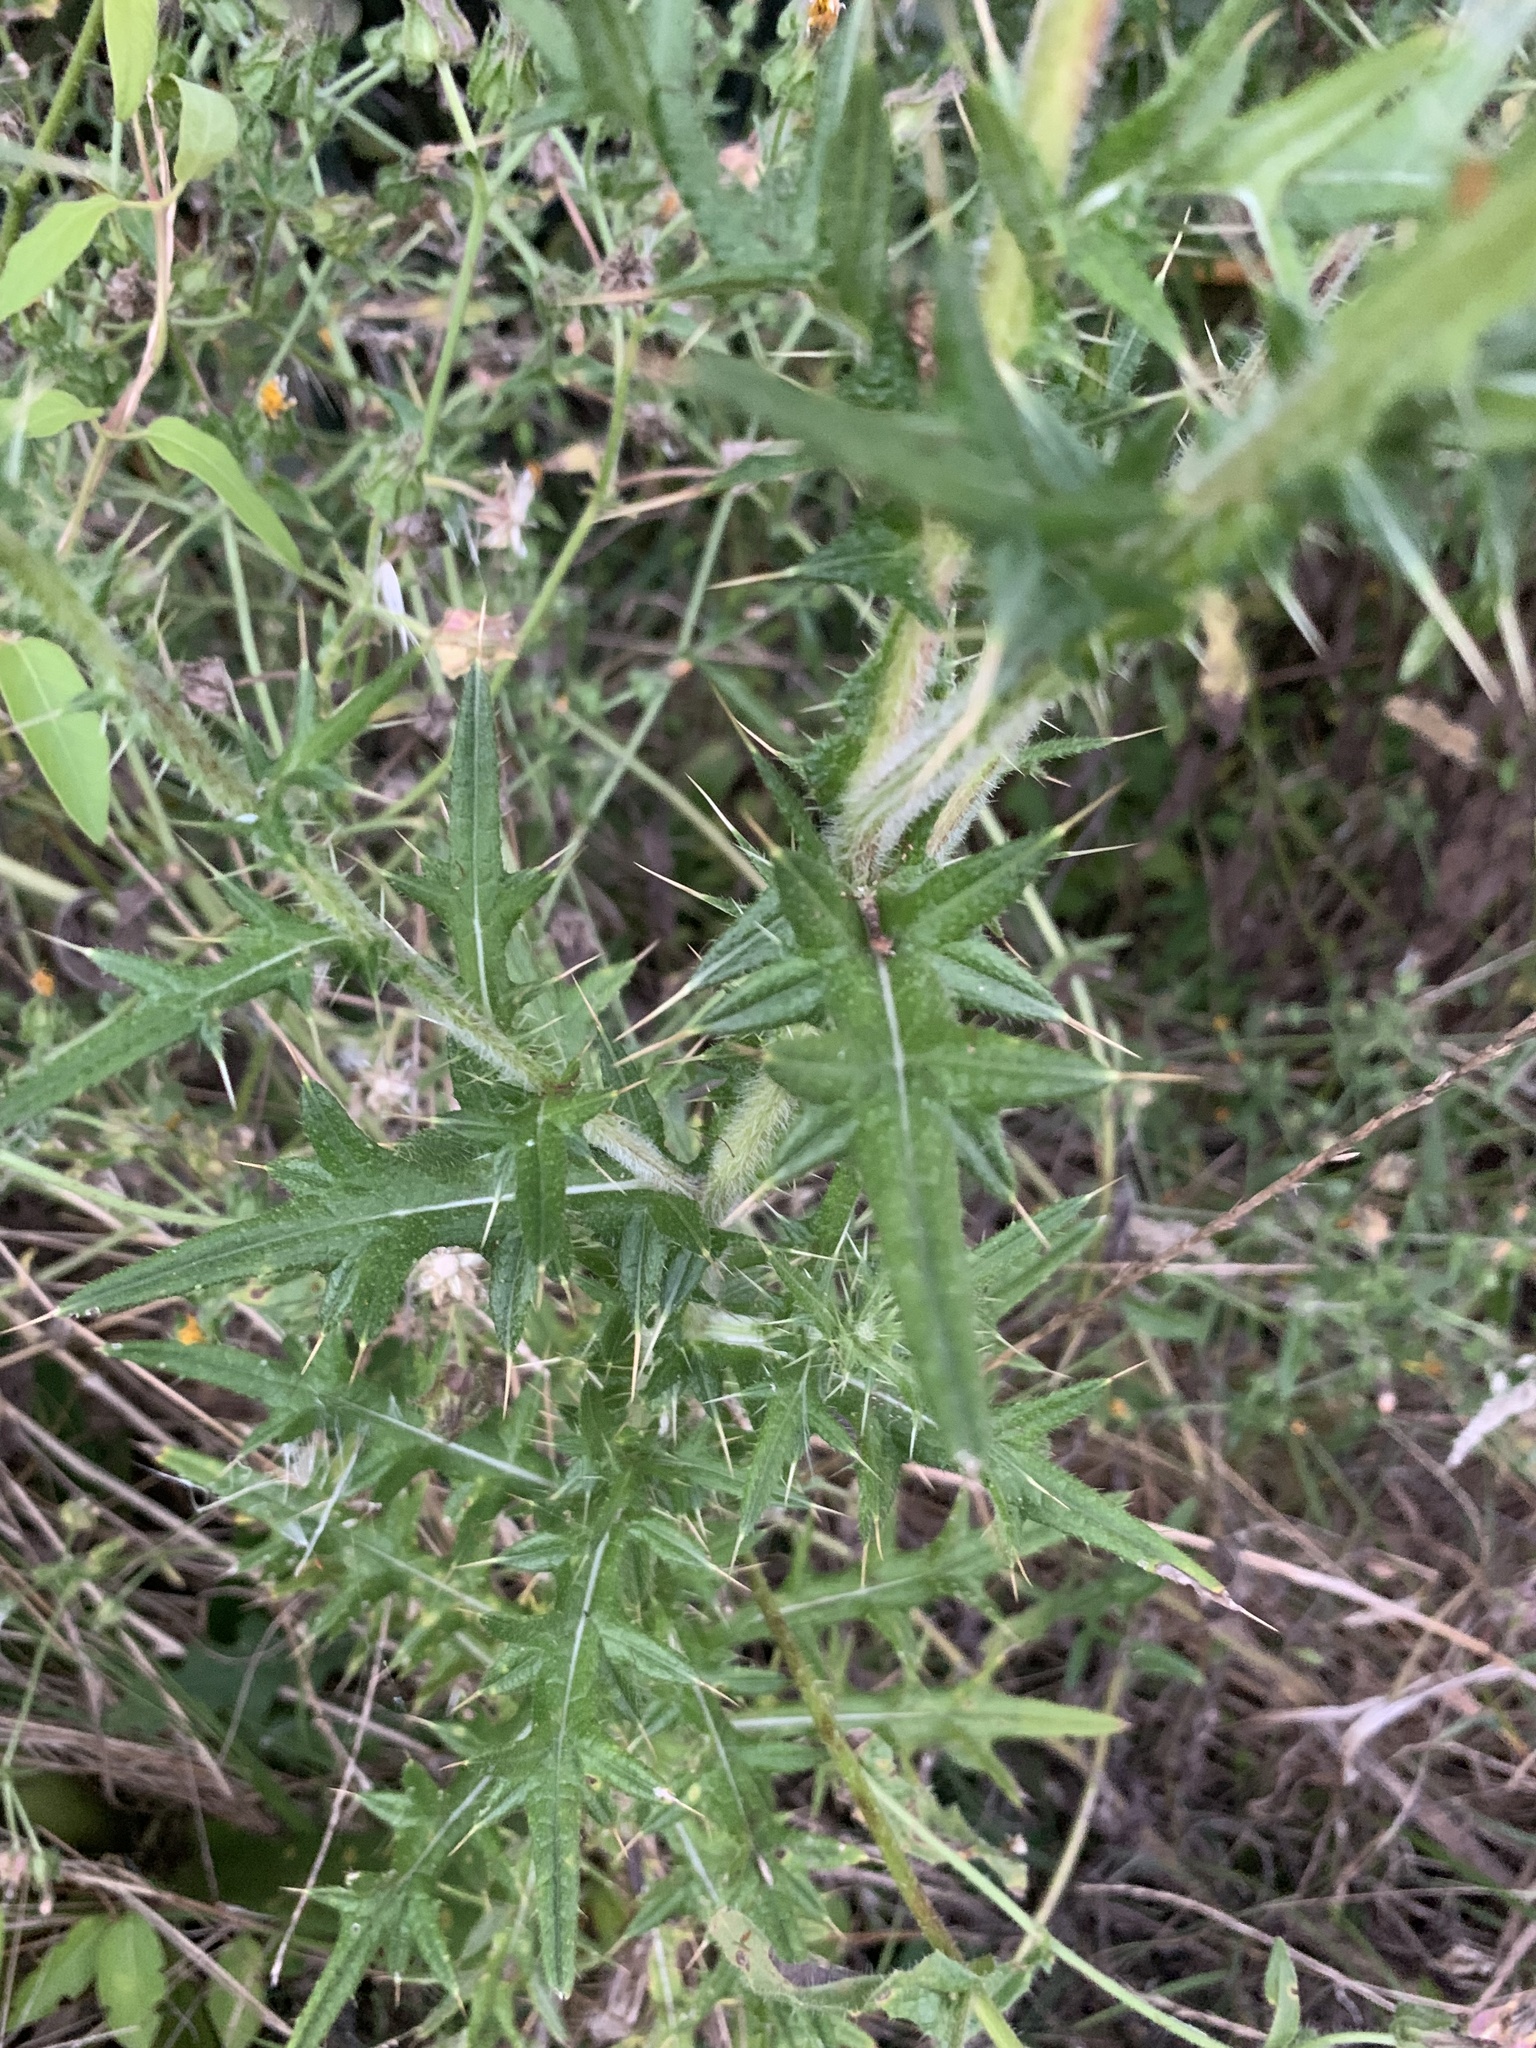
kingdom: Plantae
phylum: Tracheophyta
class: Magnoliopsida
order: Asterales
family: Asteraceae
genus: Cirsium
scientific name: Cirsium vulgare
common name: Bull thistle
